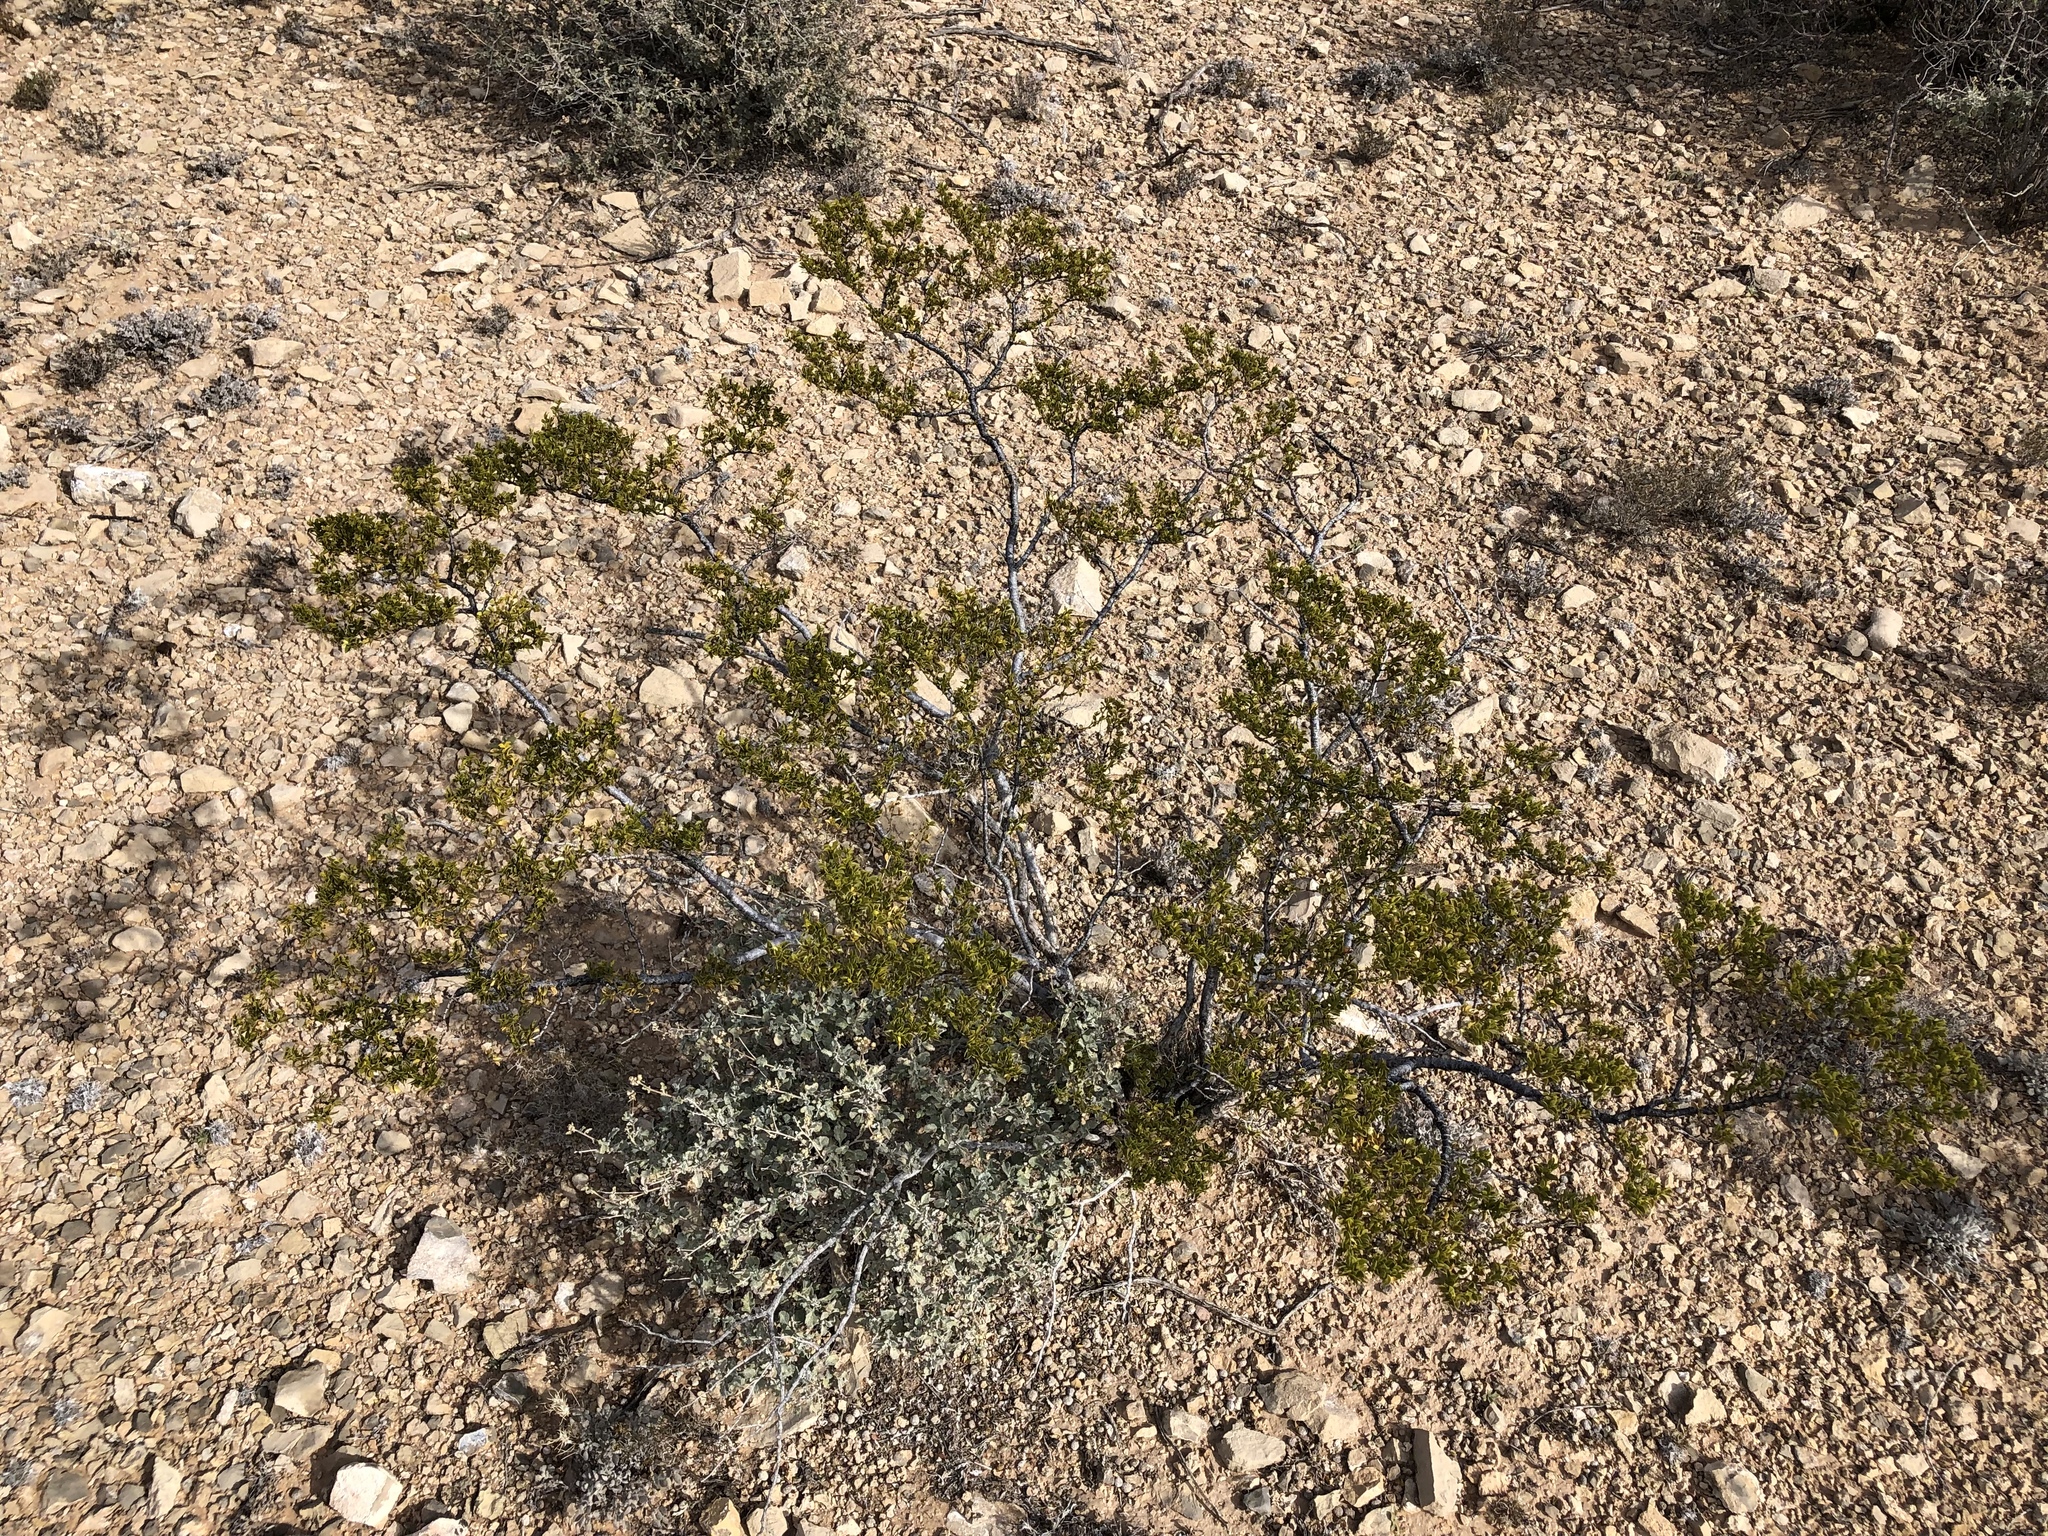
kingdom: Plantae
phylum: Tracheophyta
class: Magnoliopsida
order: Zygophyllales
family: Zygophyllaceae
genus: Larrea
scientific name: Larrea tridentata
